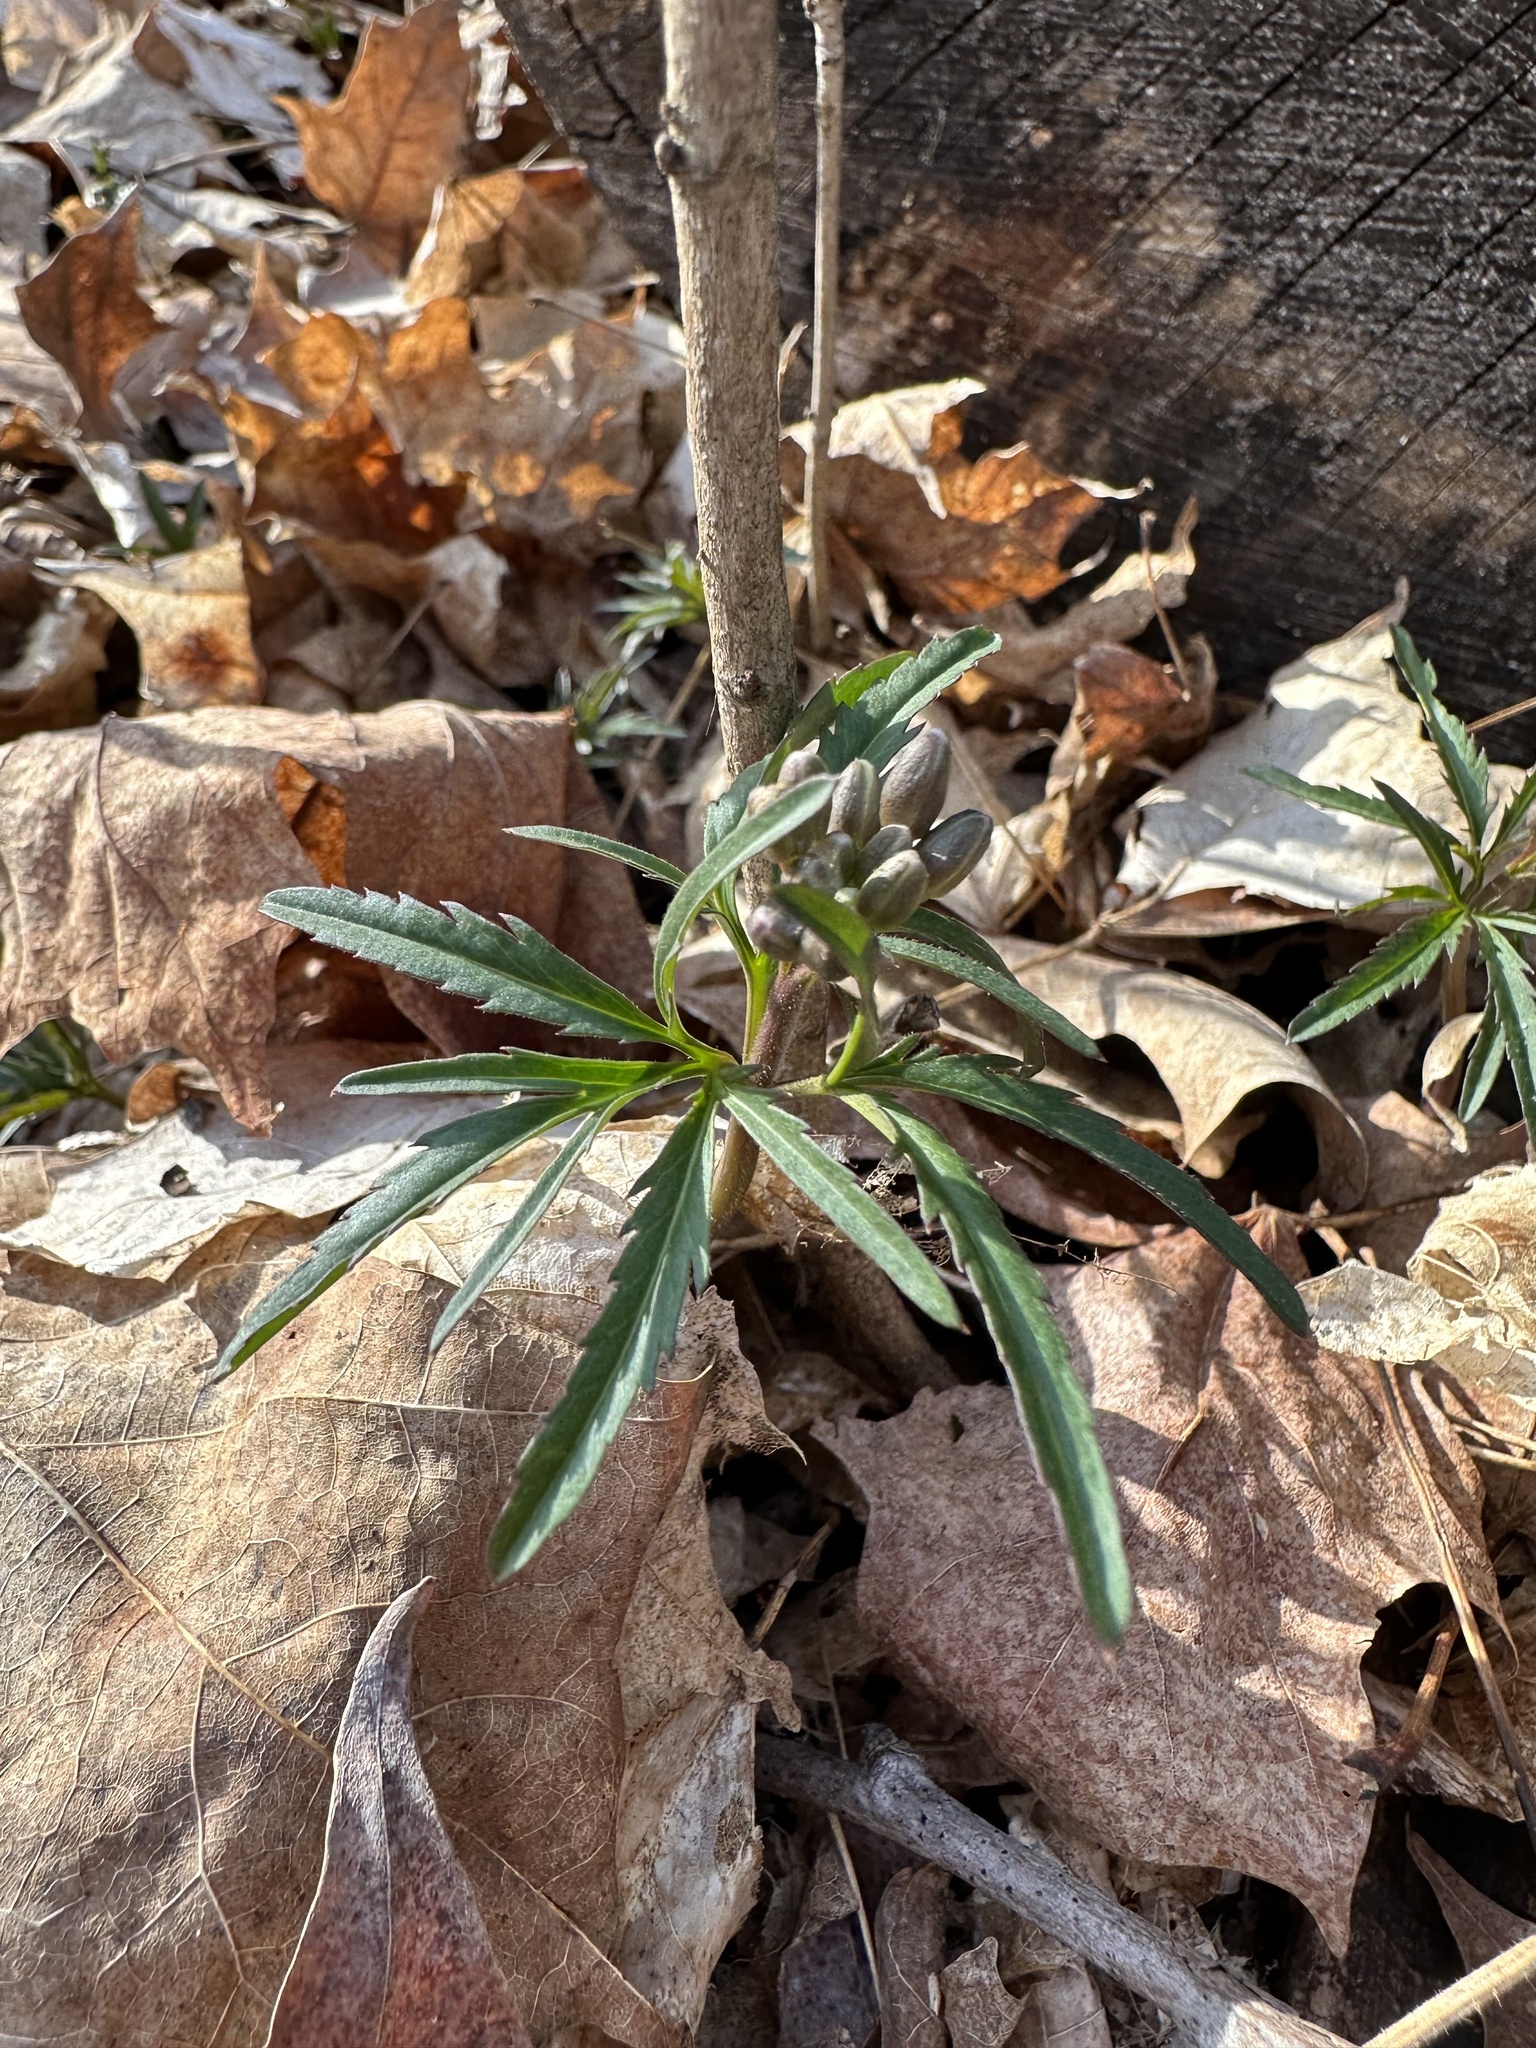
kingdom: Plantae
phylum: Tracheophyta
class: Magnoliopsida
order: Brassicales
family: Brassicaceae
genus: Cardamine
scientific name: Cardamine concatenata
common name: Cut-leaf toothcup
